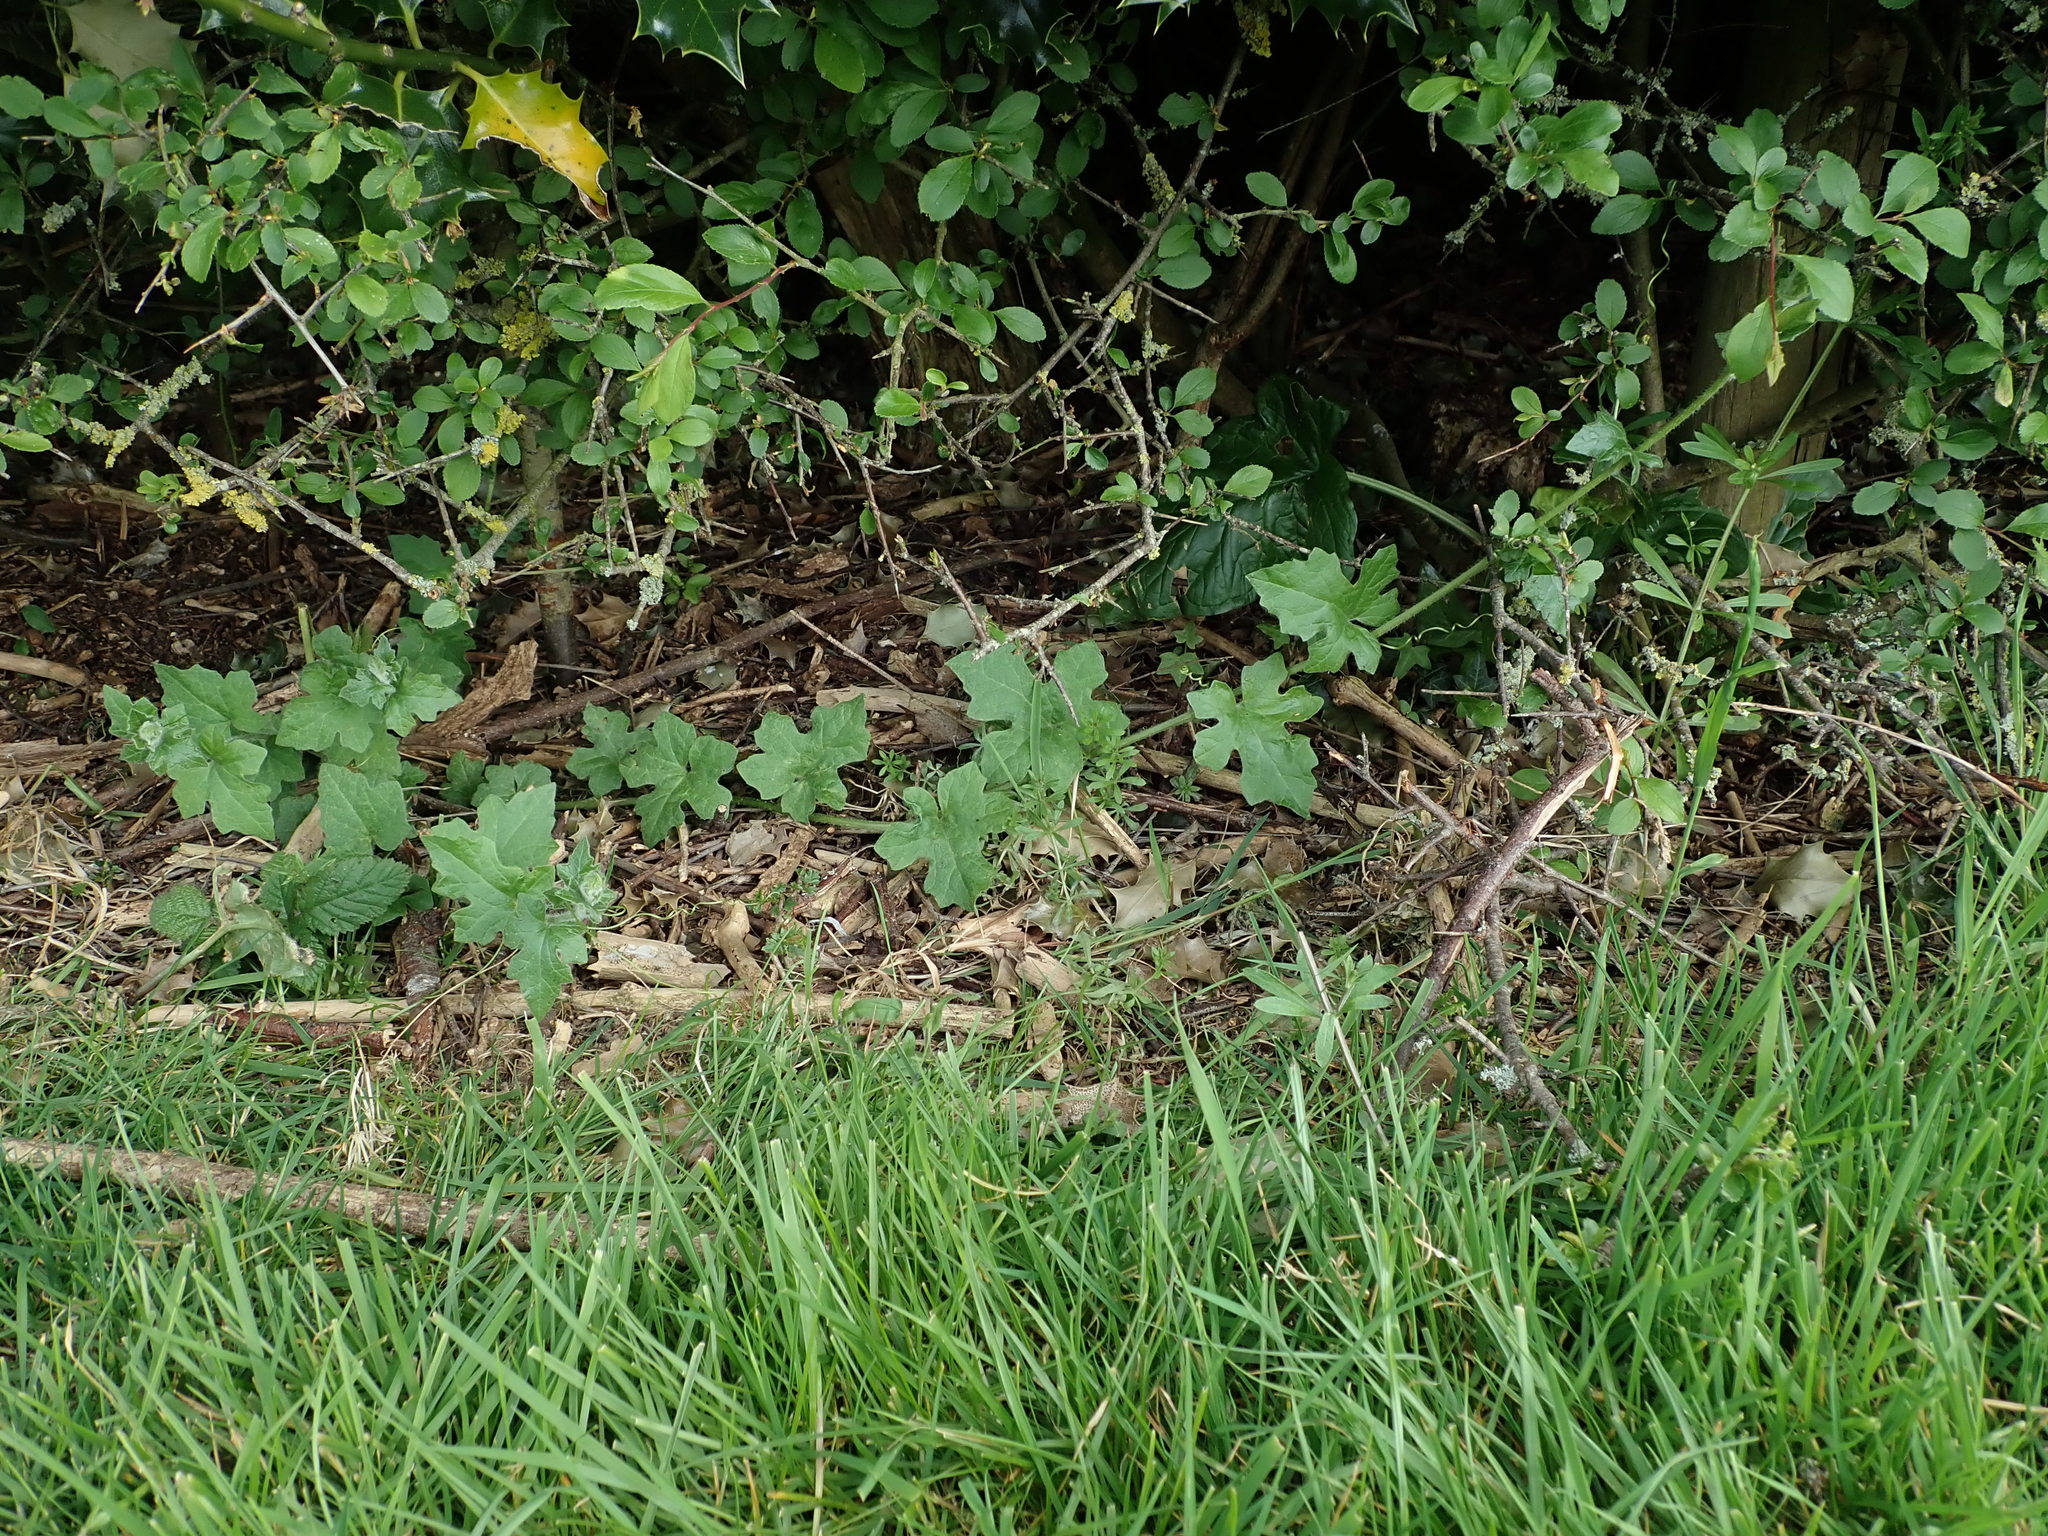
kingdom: Plantae
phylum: Tracheophyta
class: Magnoliopsida
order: Cucurbitales
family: Cucurbitaceae
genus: Bryonia
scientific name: Bryonia cretica
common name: Cretan bryony
